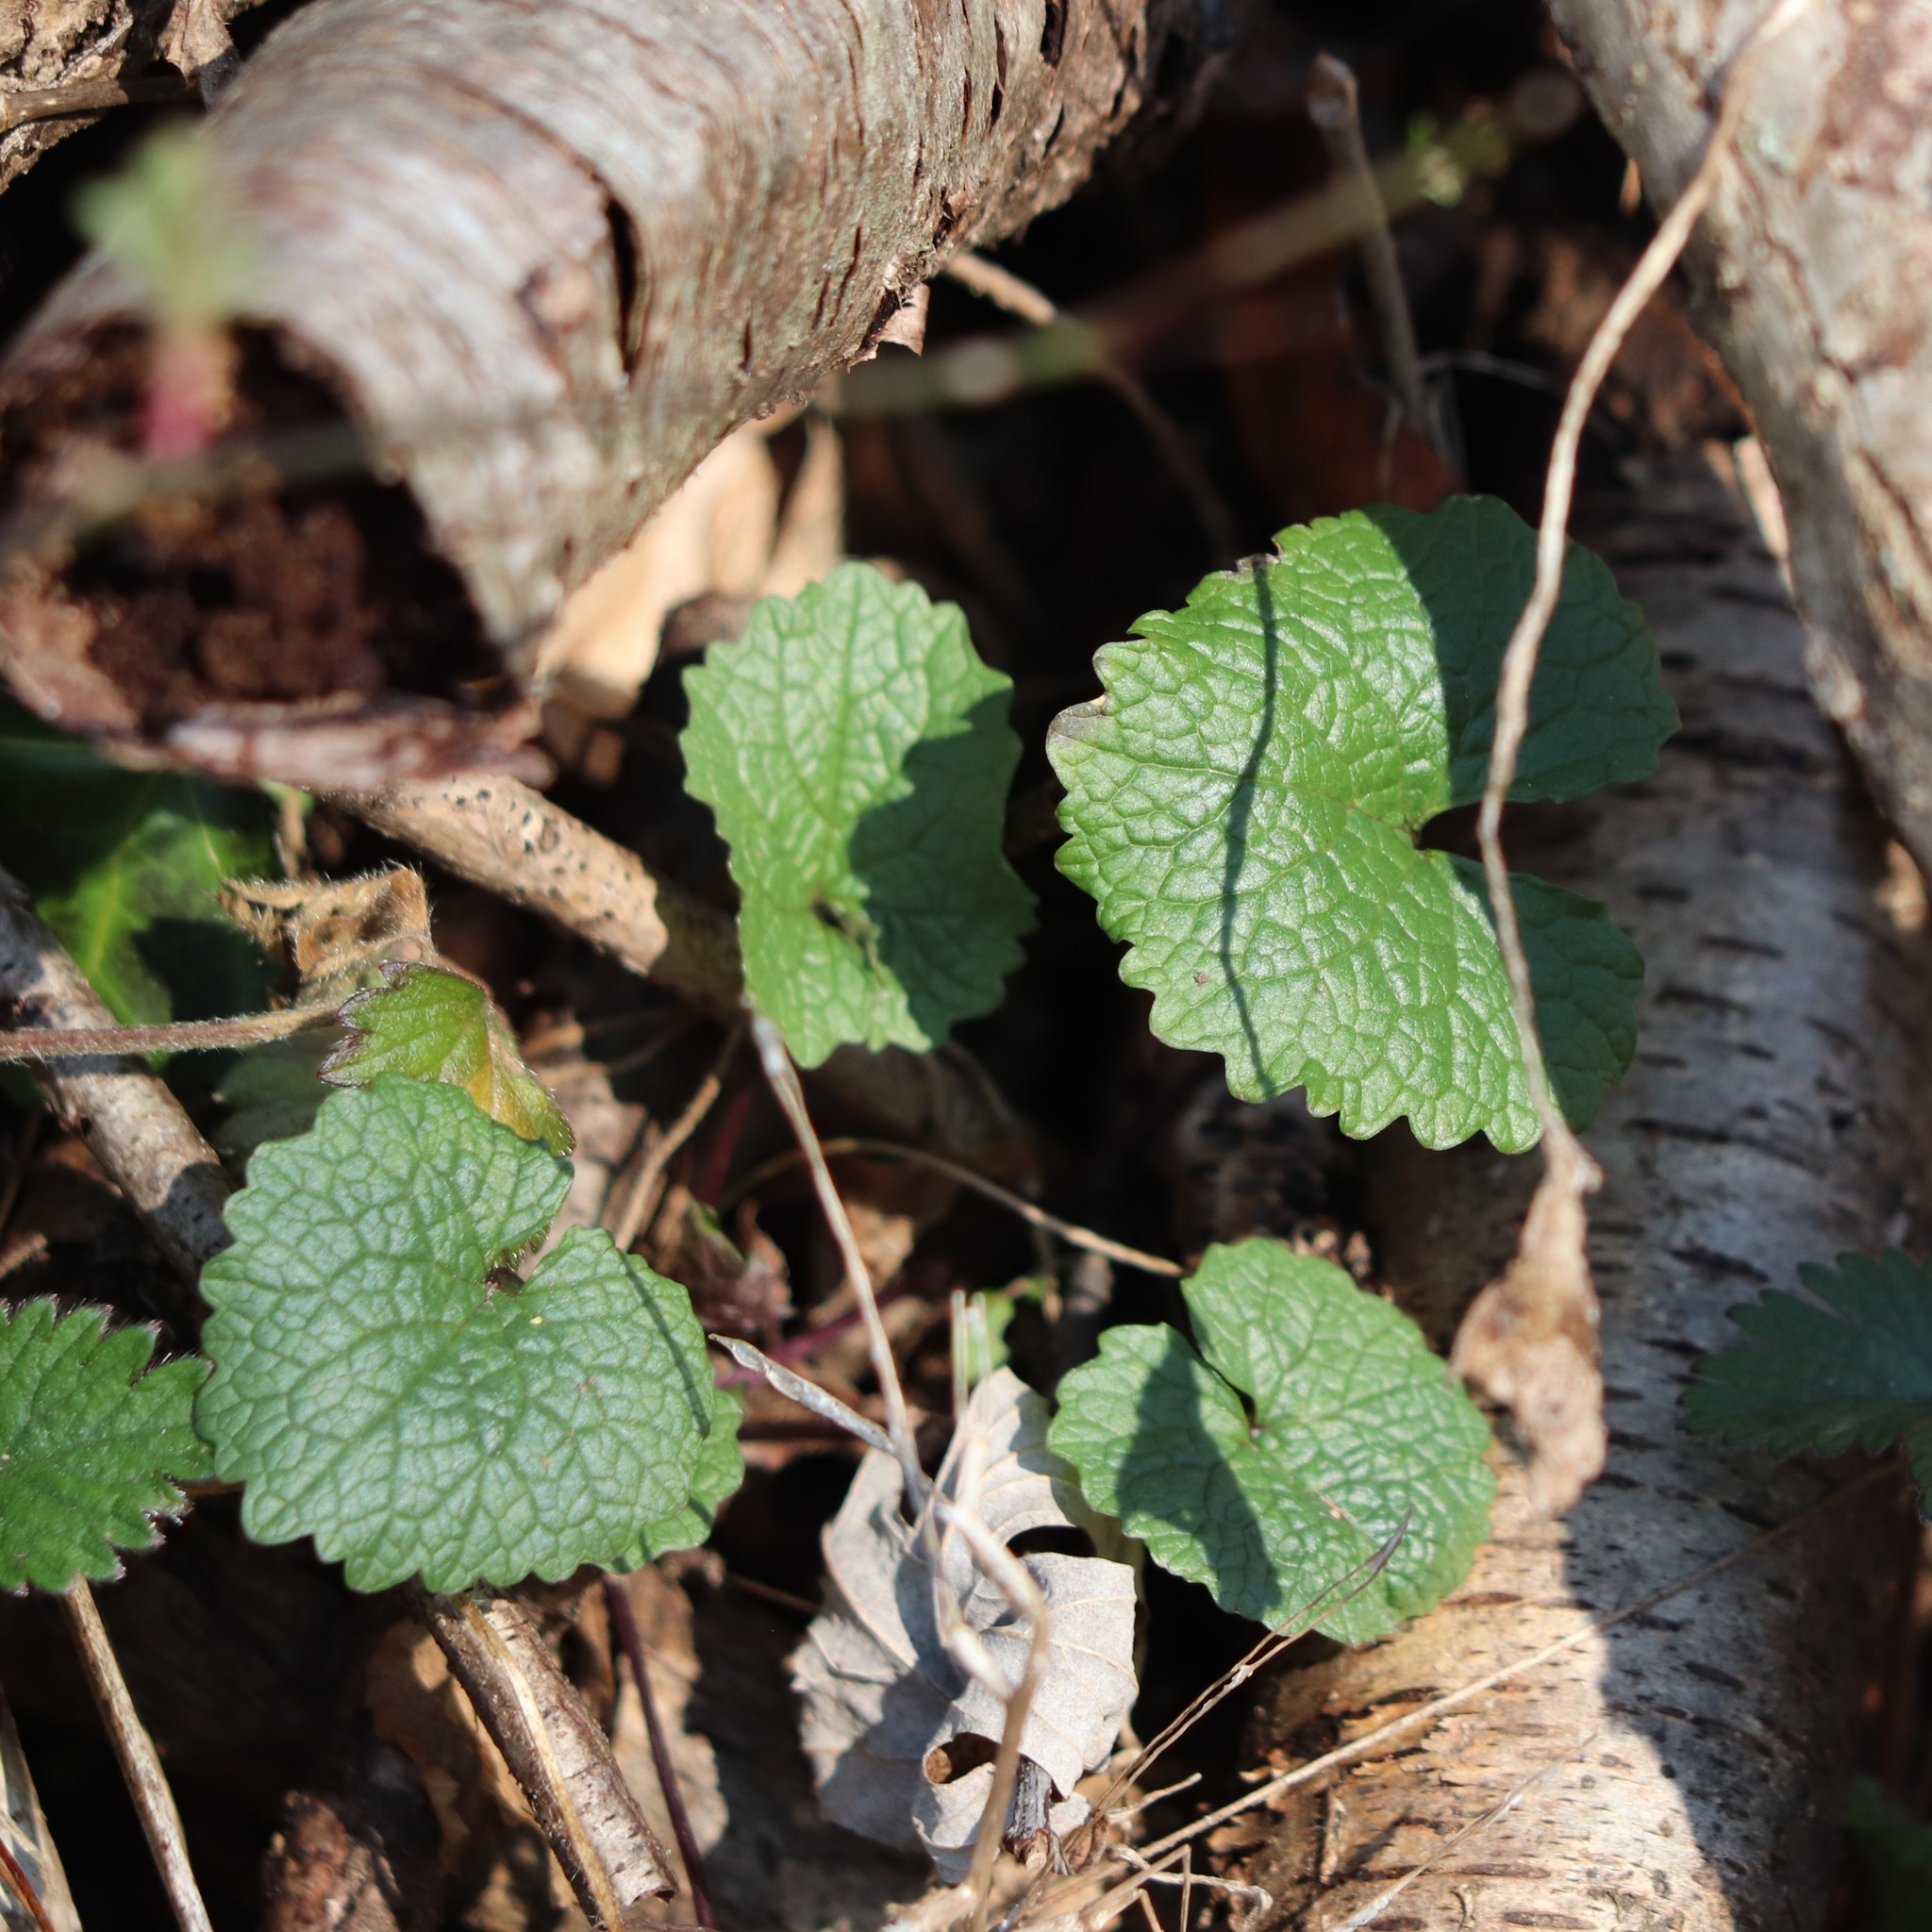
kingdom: Plantae
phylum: Tracheophyta
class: Magnoliopsida
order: Brassicales
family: Brassicaceae
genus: Alliaria
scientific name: Alliaria petiolata
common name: Garlic mustard
